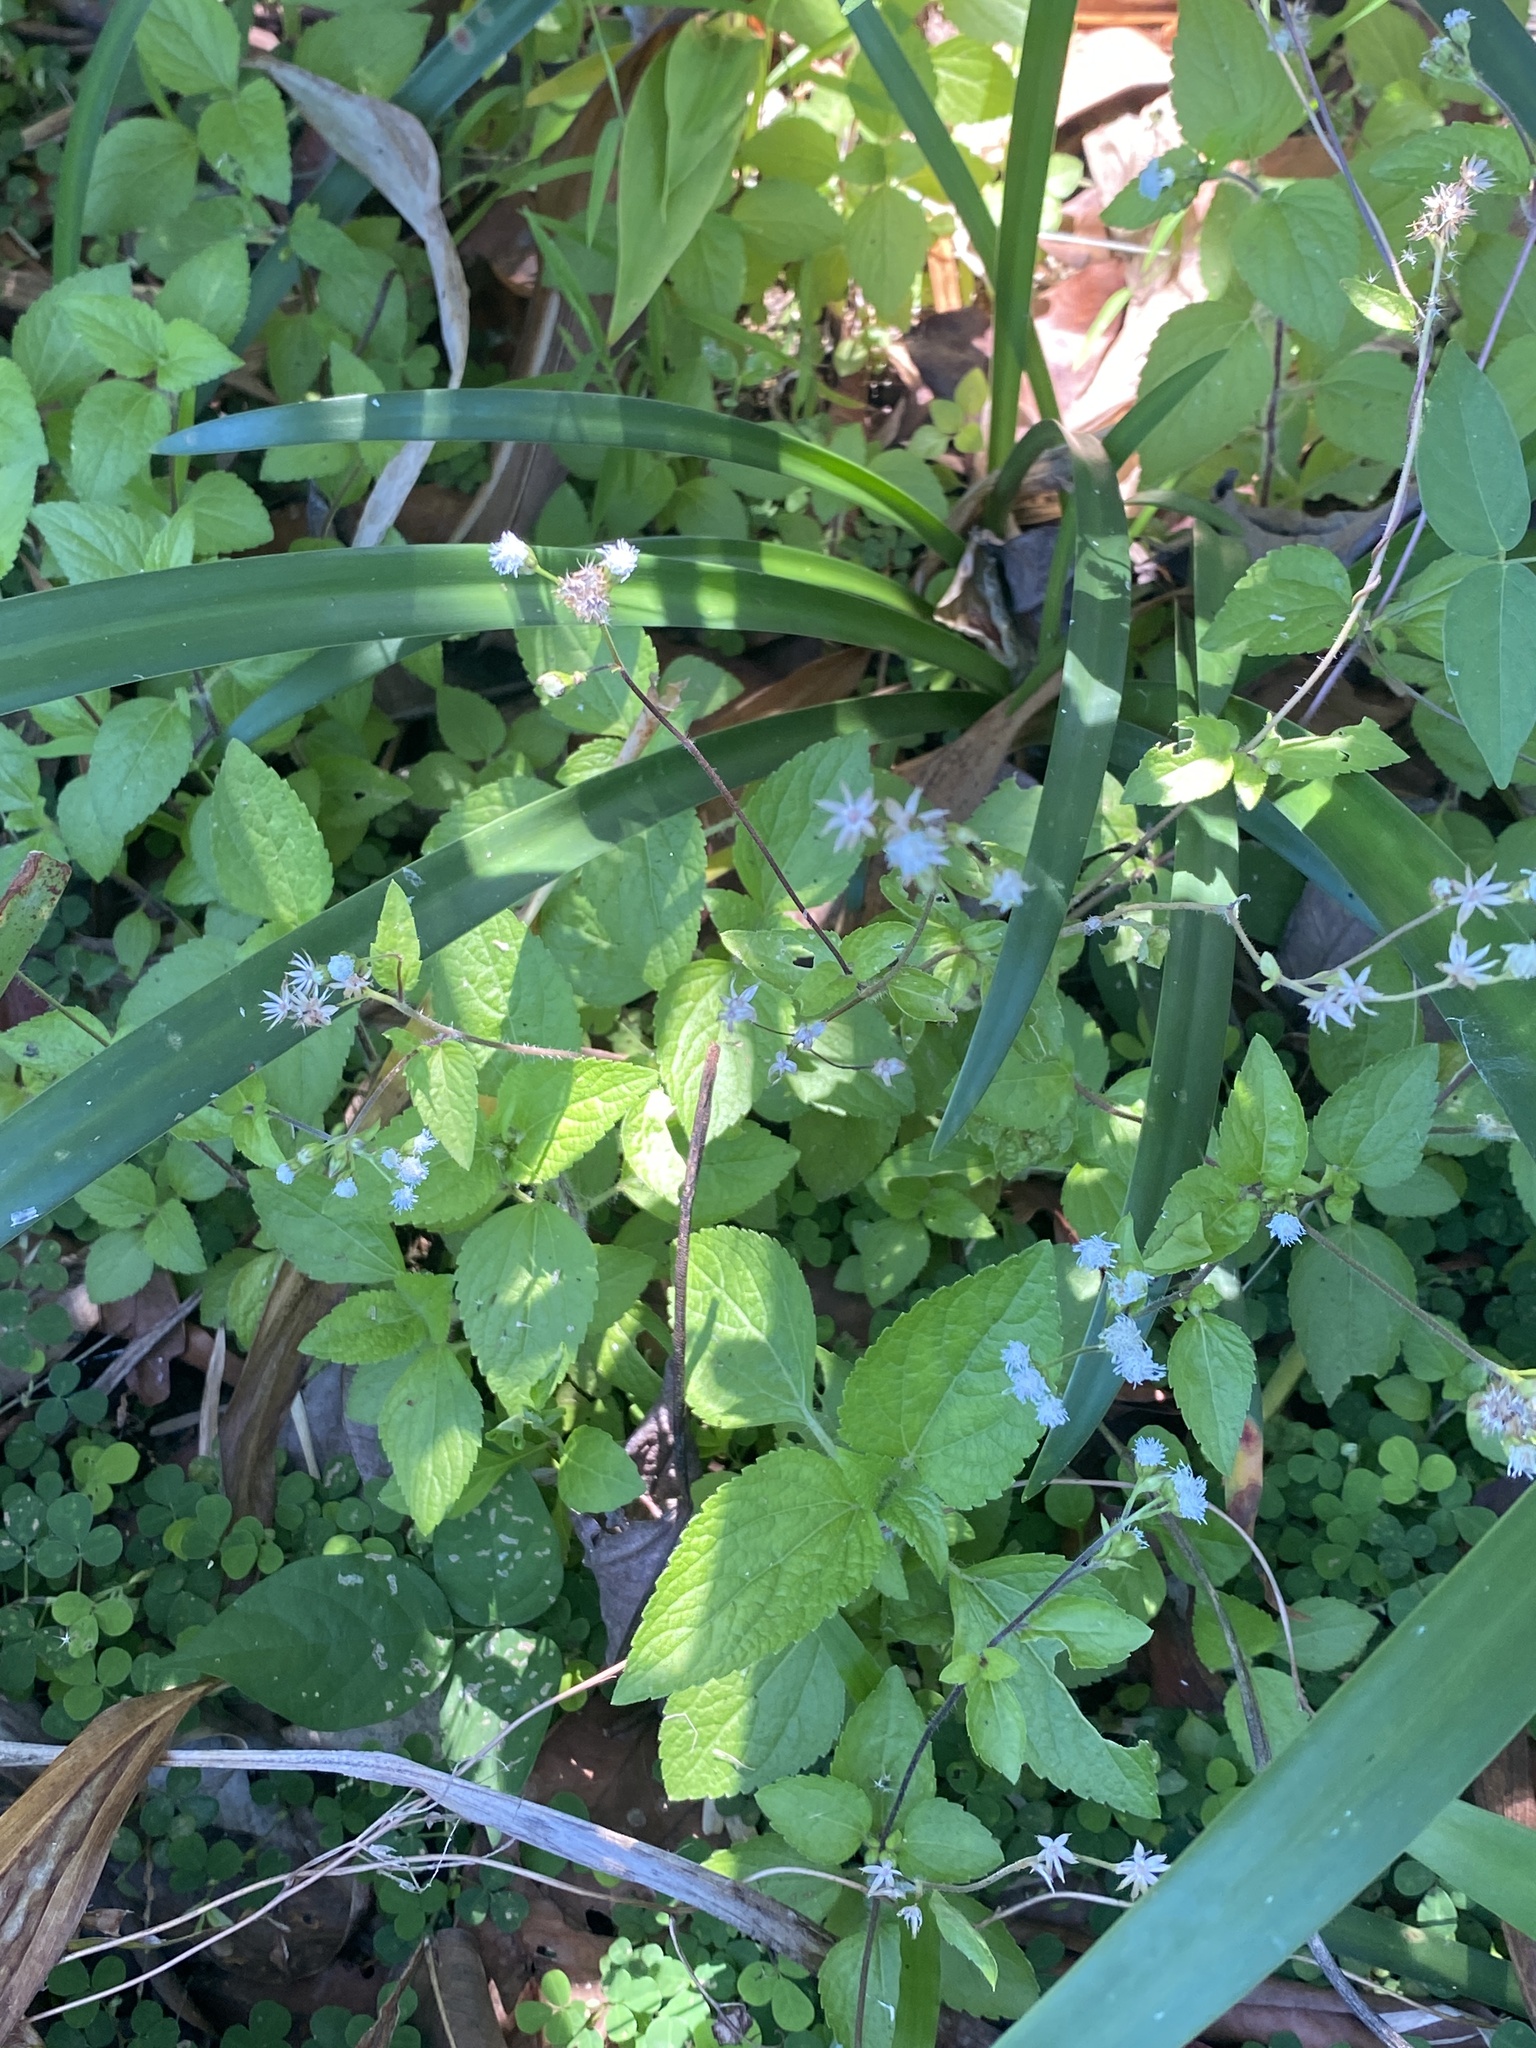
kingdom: Plantae
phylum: Tracheophyta
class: Magnoliopsida
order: Asterales
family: Asteraceae
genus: Ageratum
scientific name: Ageratum conyzoides
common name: Tropical whiteweed
